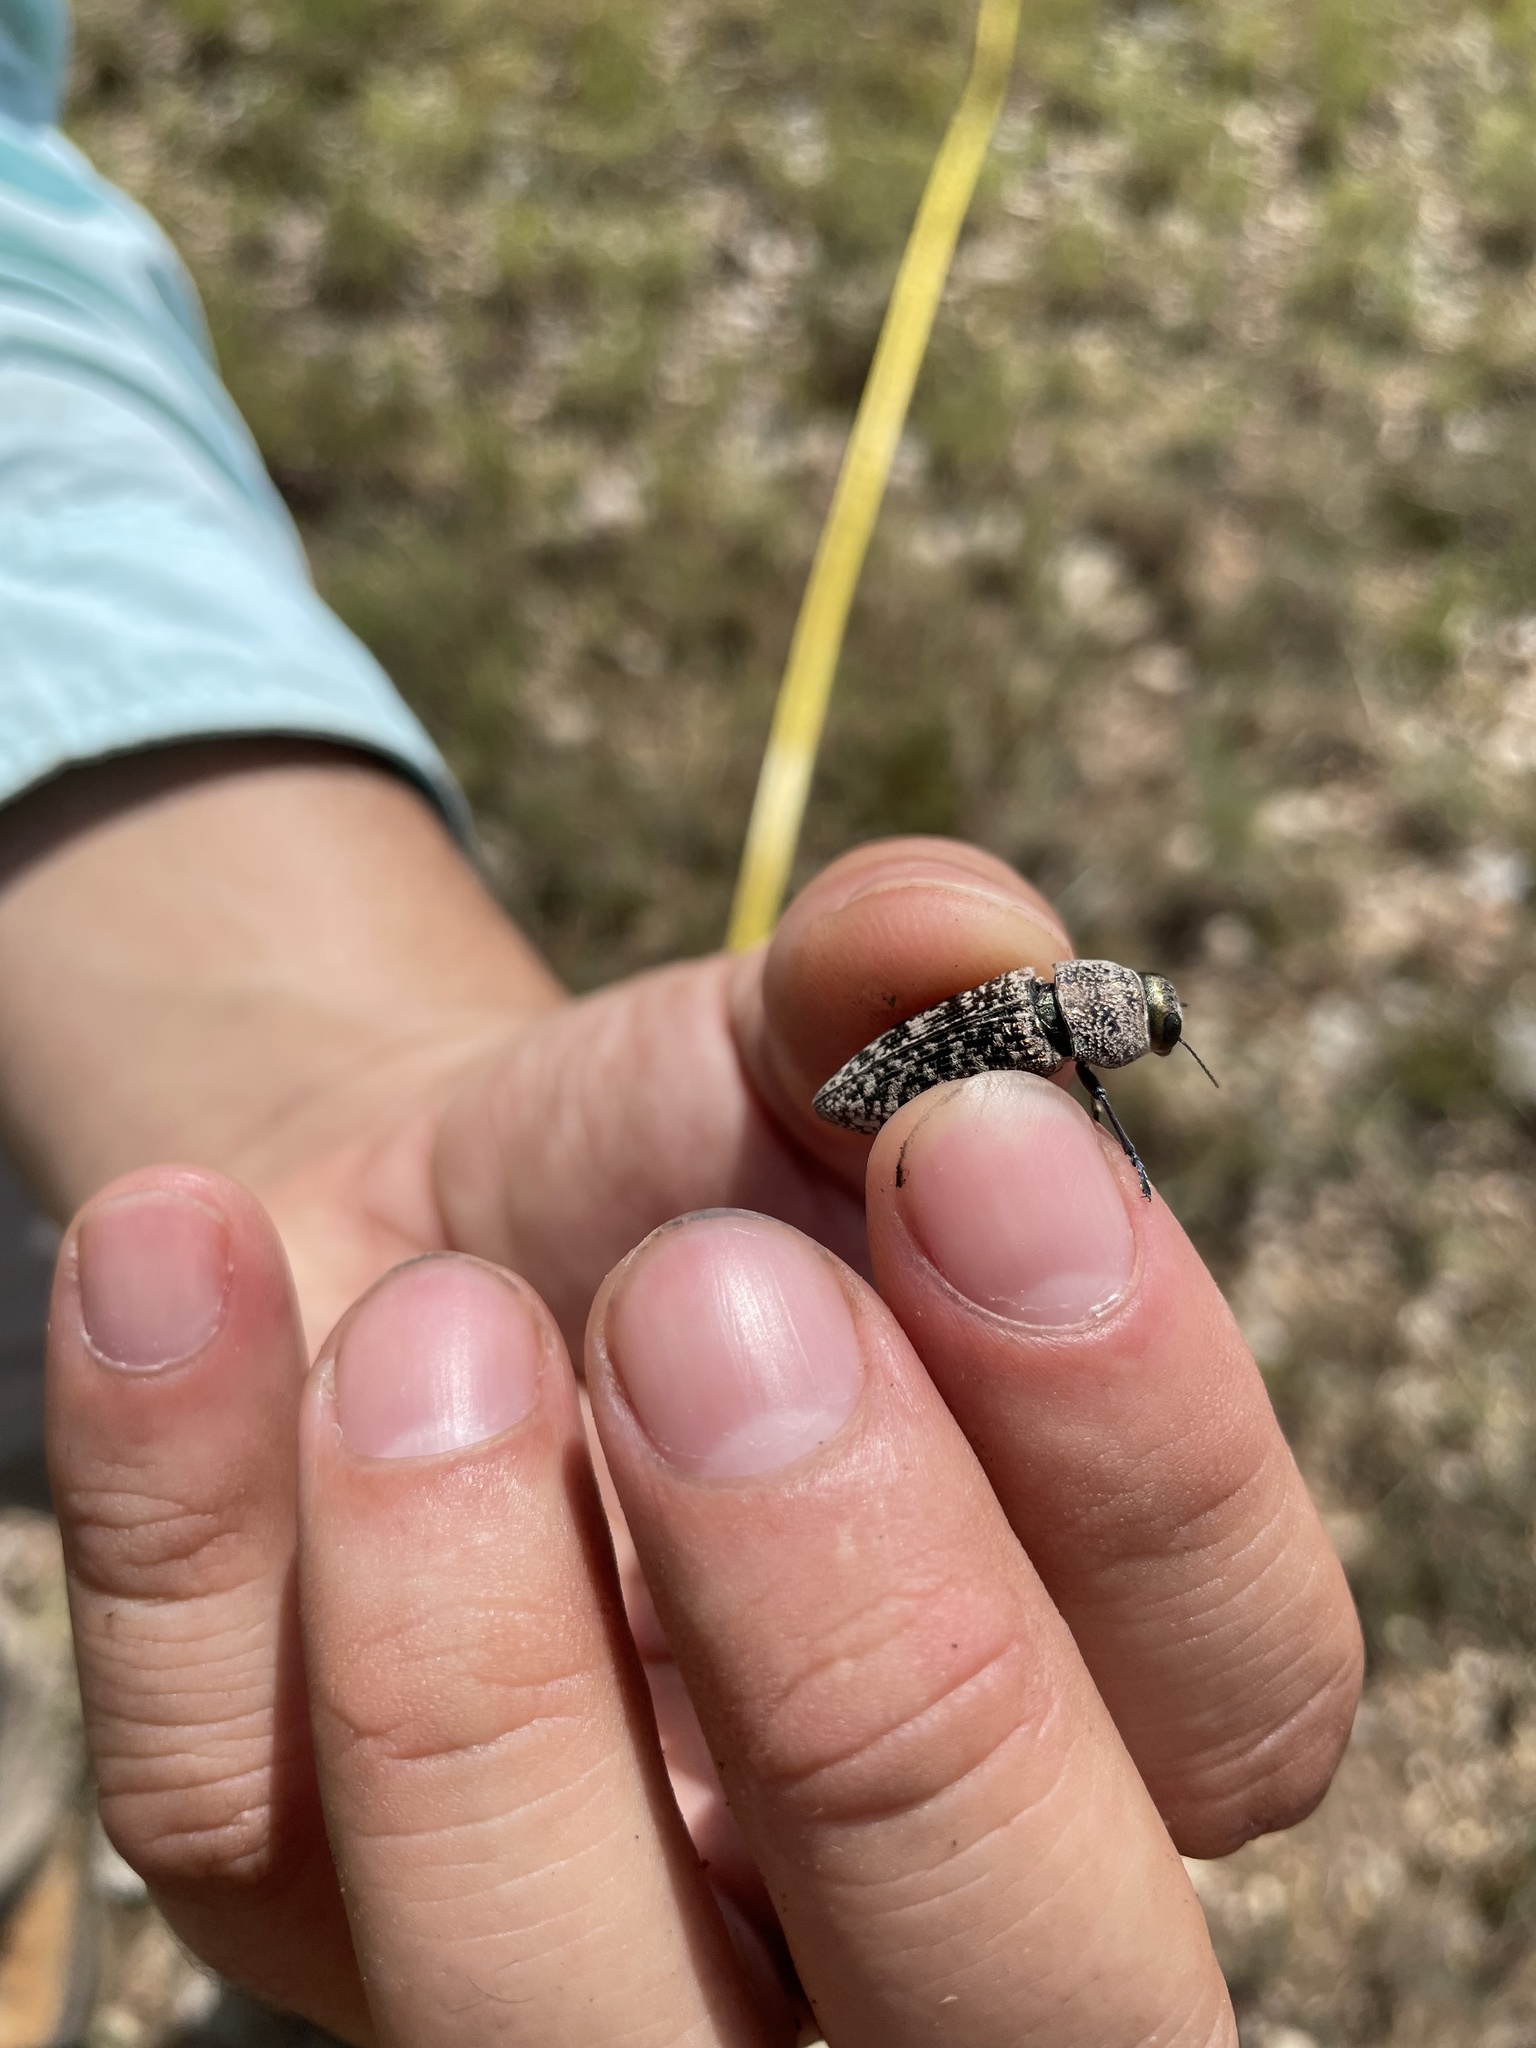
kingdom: Animalia
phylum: Arthropoda
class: Insecta
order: Coleoptera
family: Buprestidae
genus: Lampetis
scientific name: Lampetis drummondi
